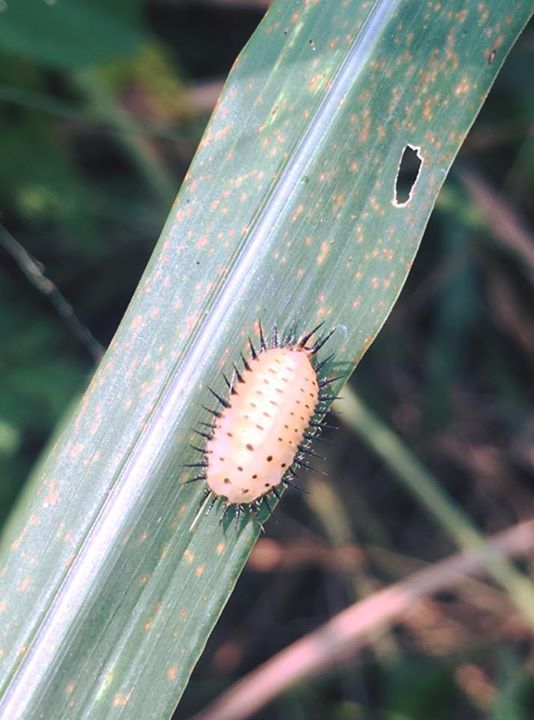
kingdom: Animalia
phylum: Arthropoda
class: Insecta
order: Coleoptera
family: Chrysomelidae
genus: Aspidimorpha
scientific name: Aspidimorpha miliaris
